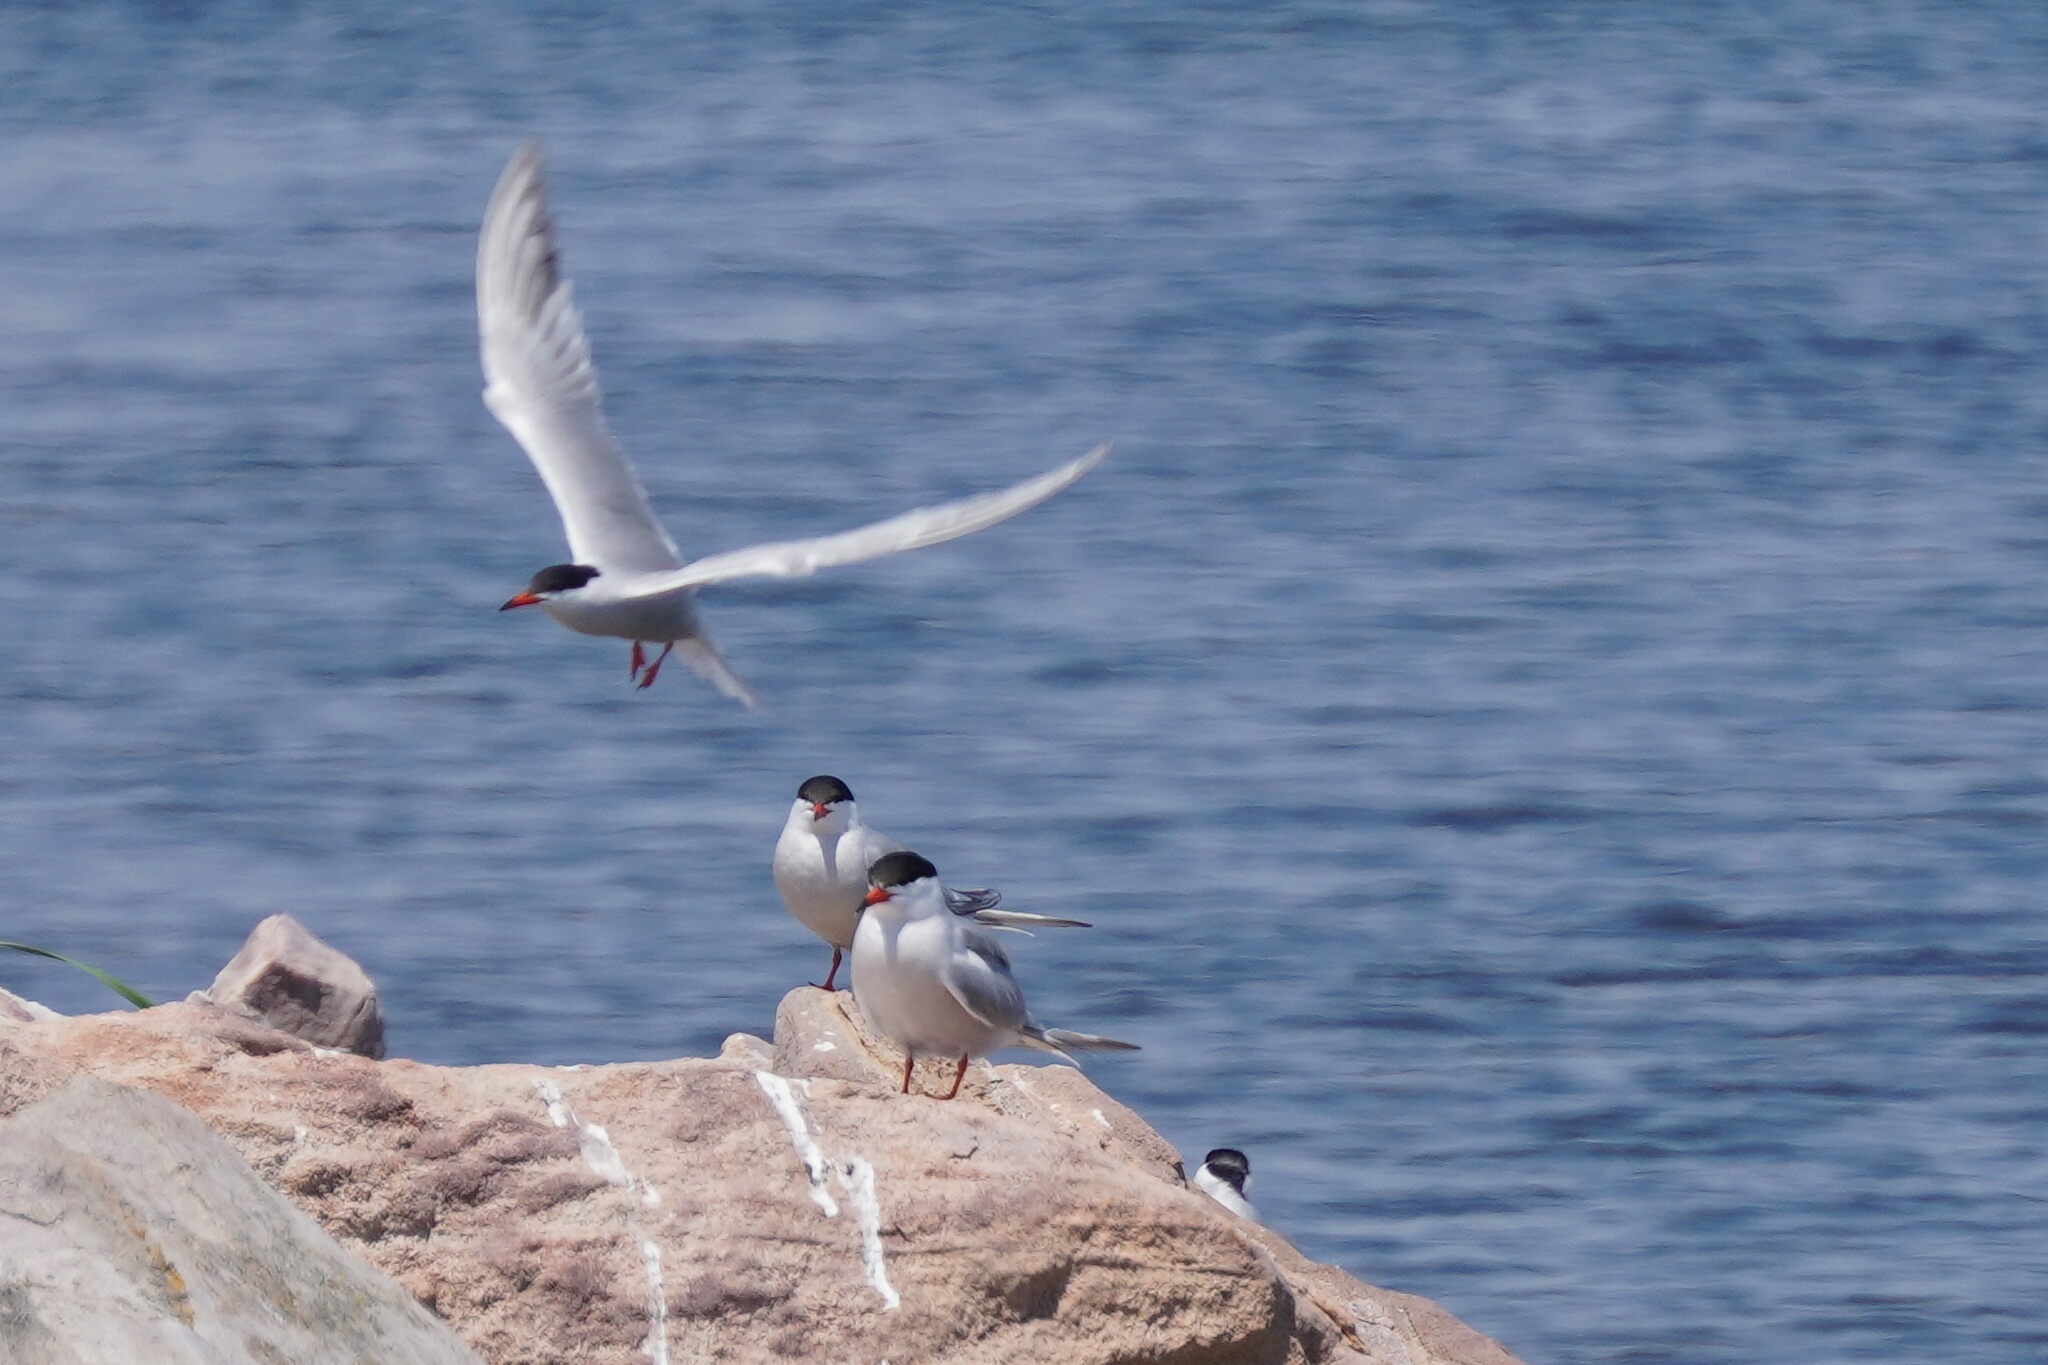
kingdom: Animalia
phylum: Chordata
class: Aves
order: Charadriiformes
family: Laridae
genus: Sterna
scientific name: Sterna hirundo
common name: Common tern
